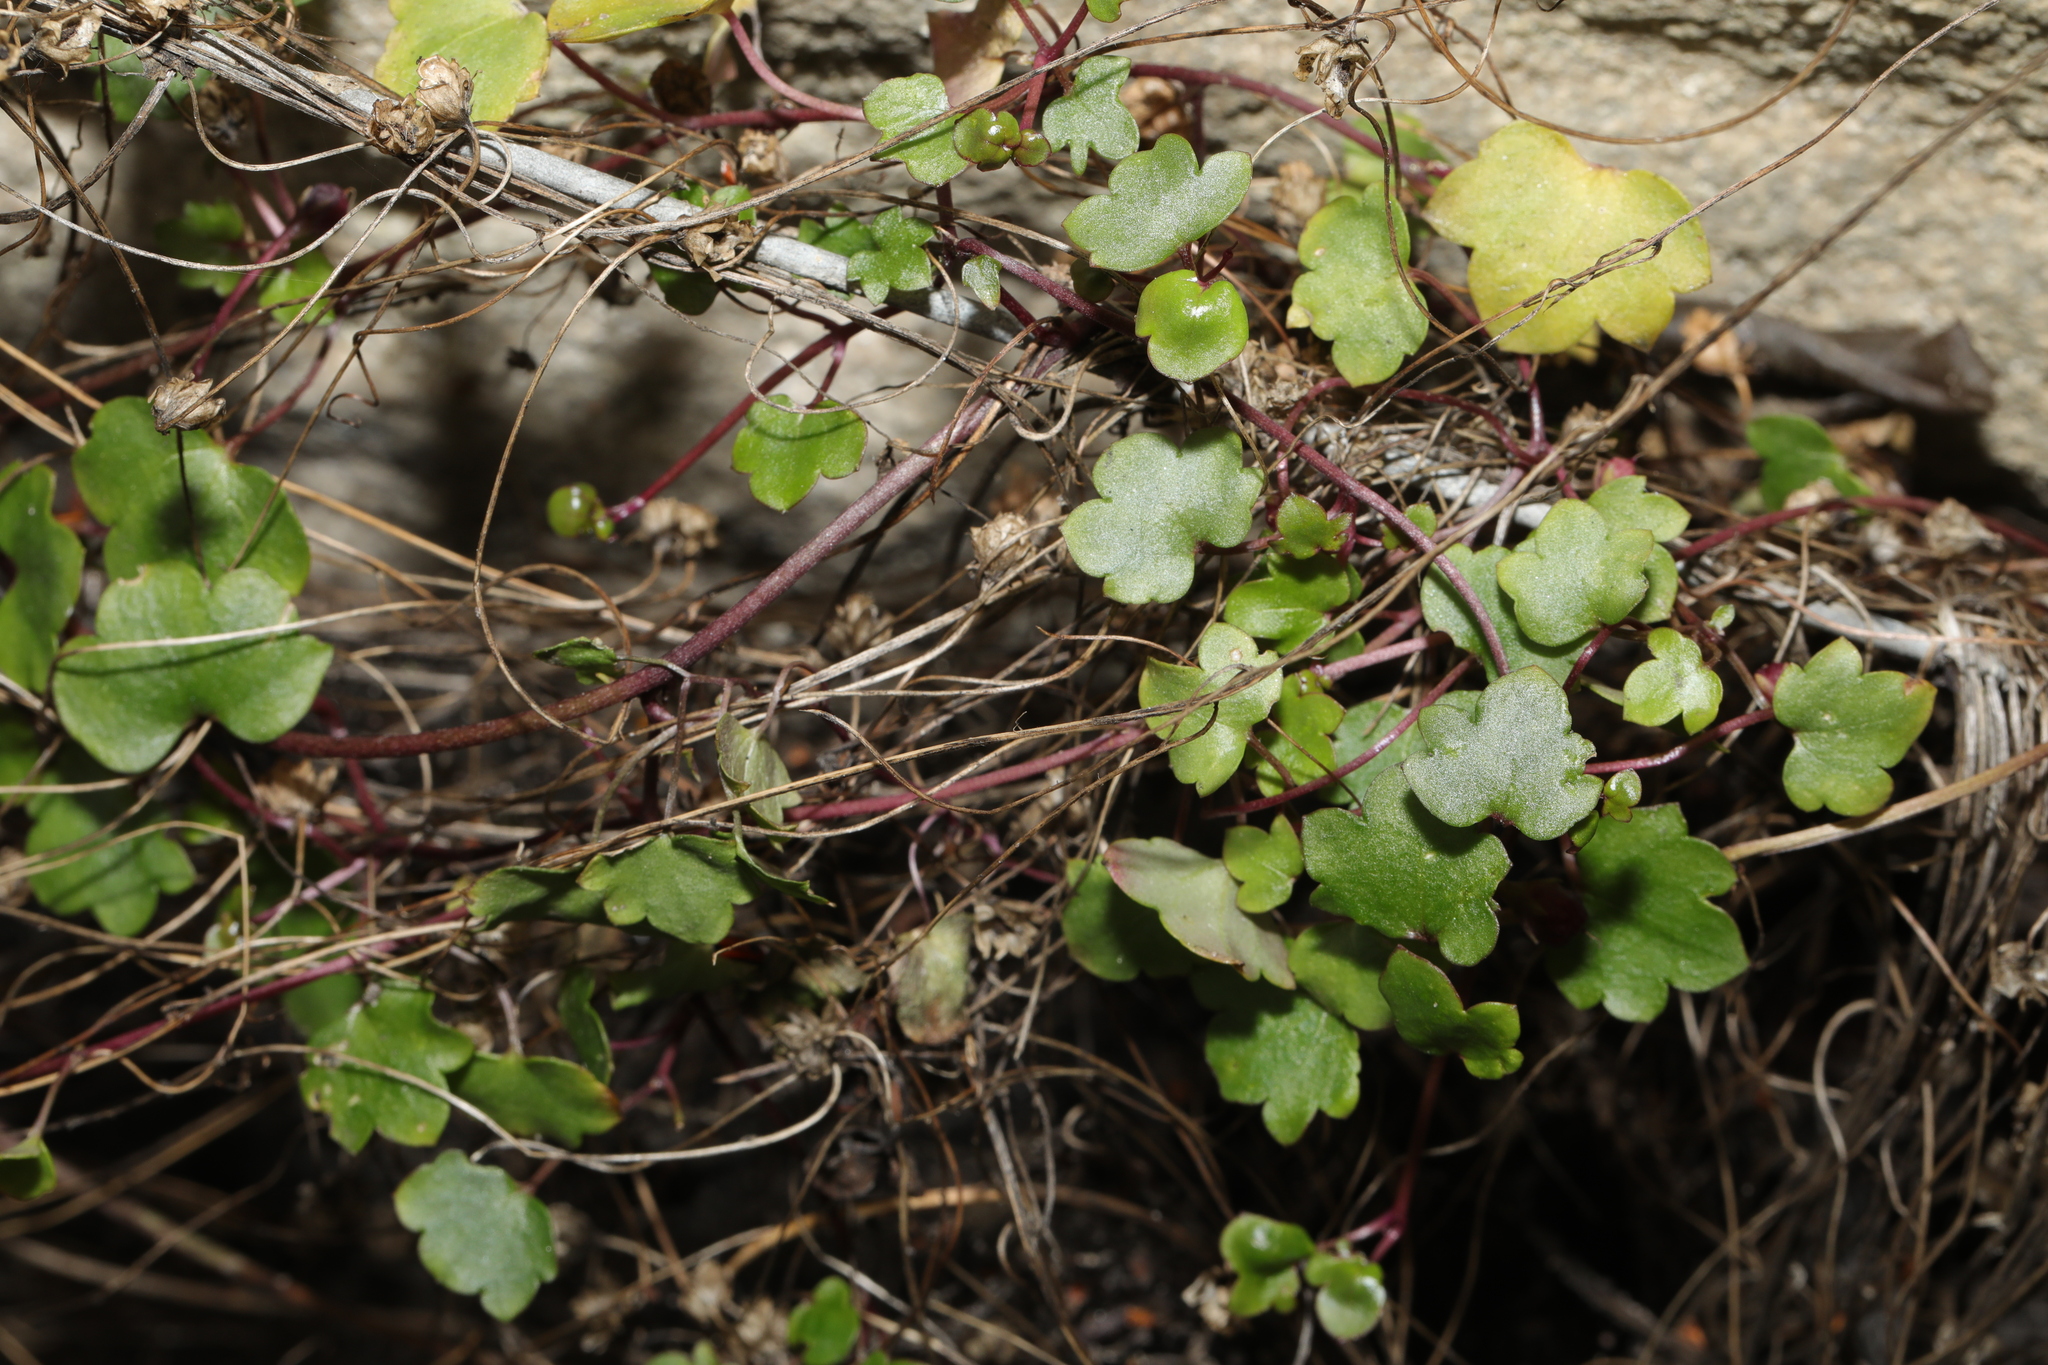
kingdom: Plantae
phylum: Tracheophyta
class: Magnoliopsida
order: Lamiales
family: Plantaginaceae
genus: Cymbalaria
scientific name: Cymbalaria muralis
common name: Ivy-leaved toadflax
